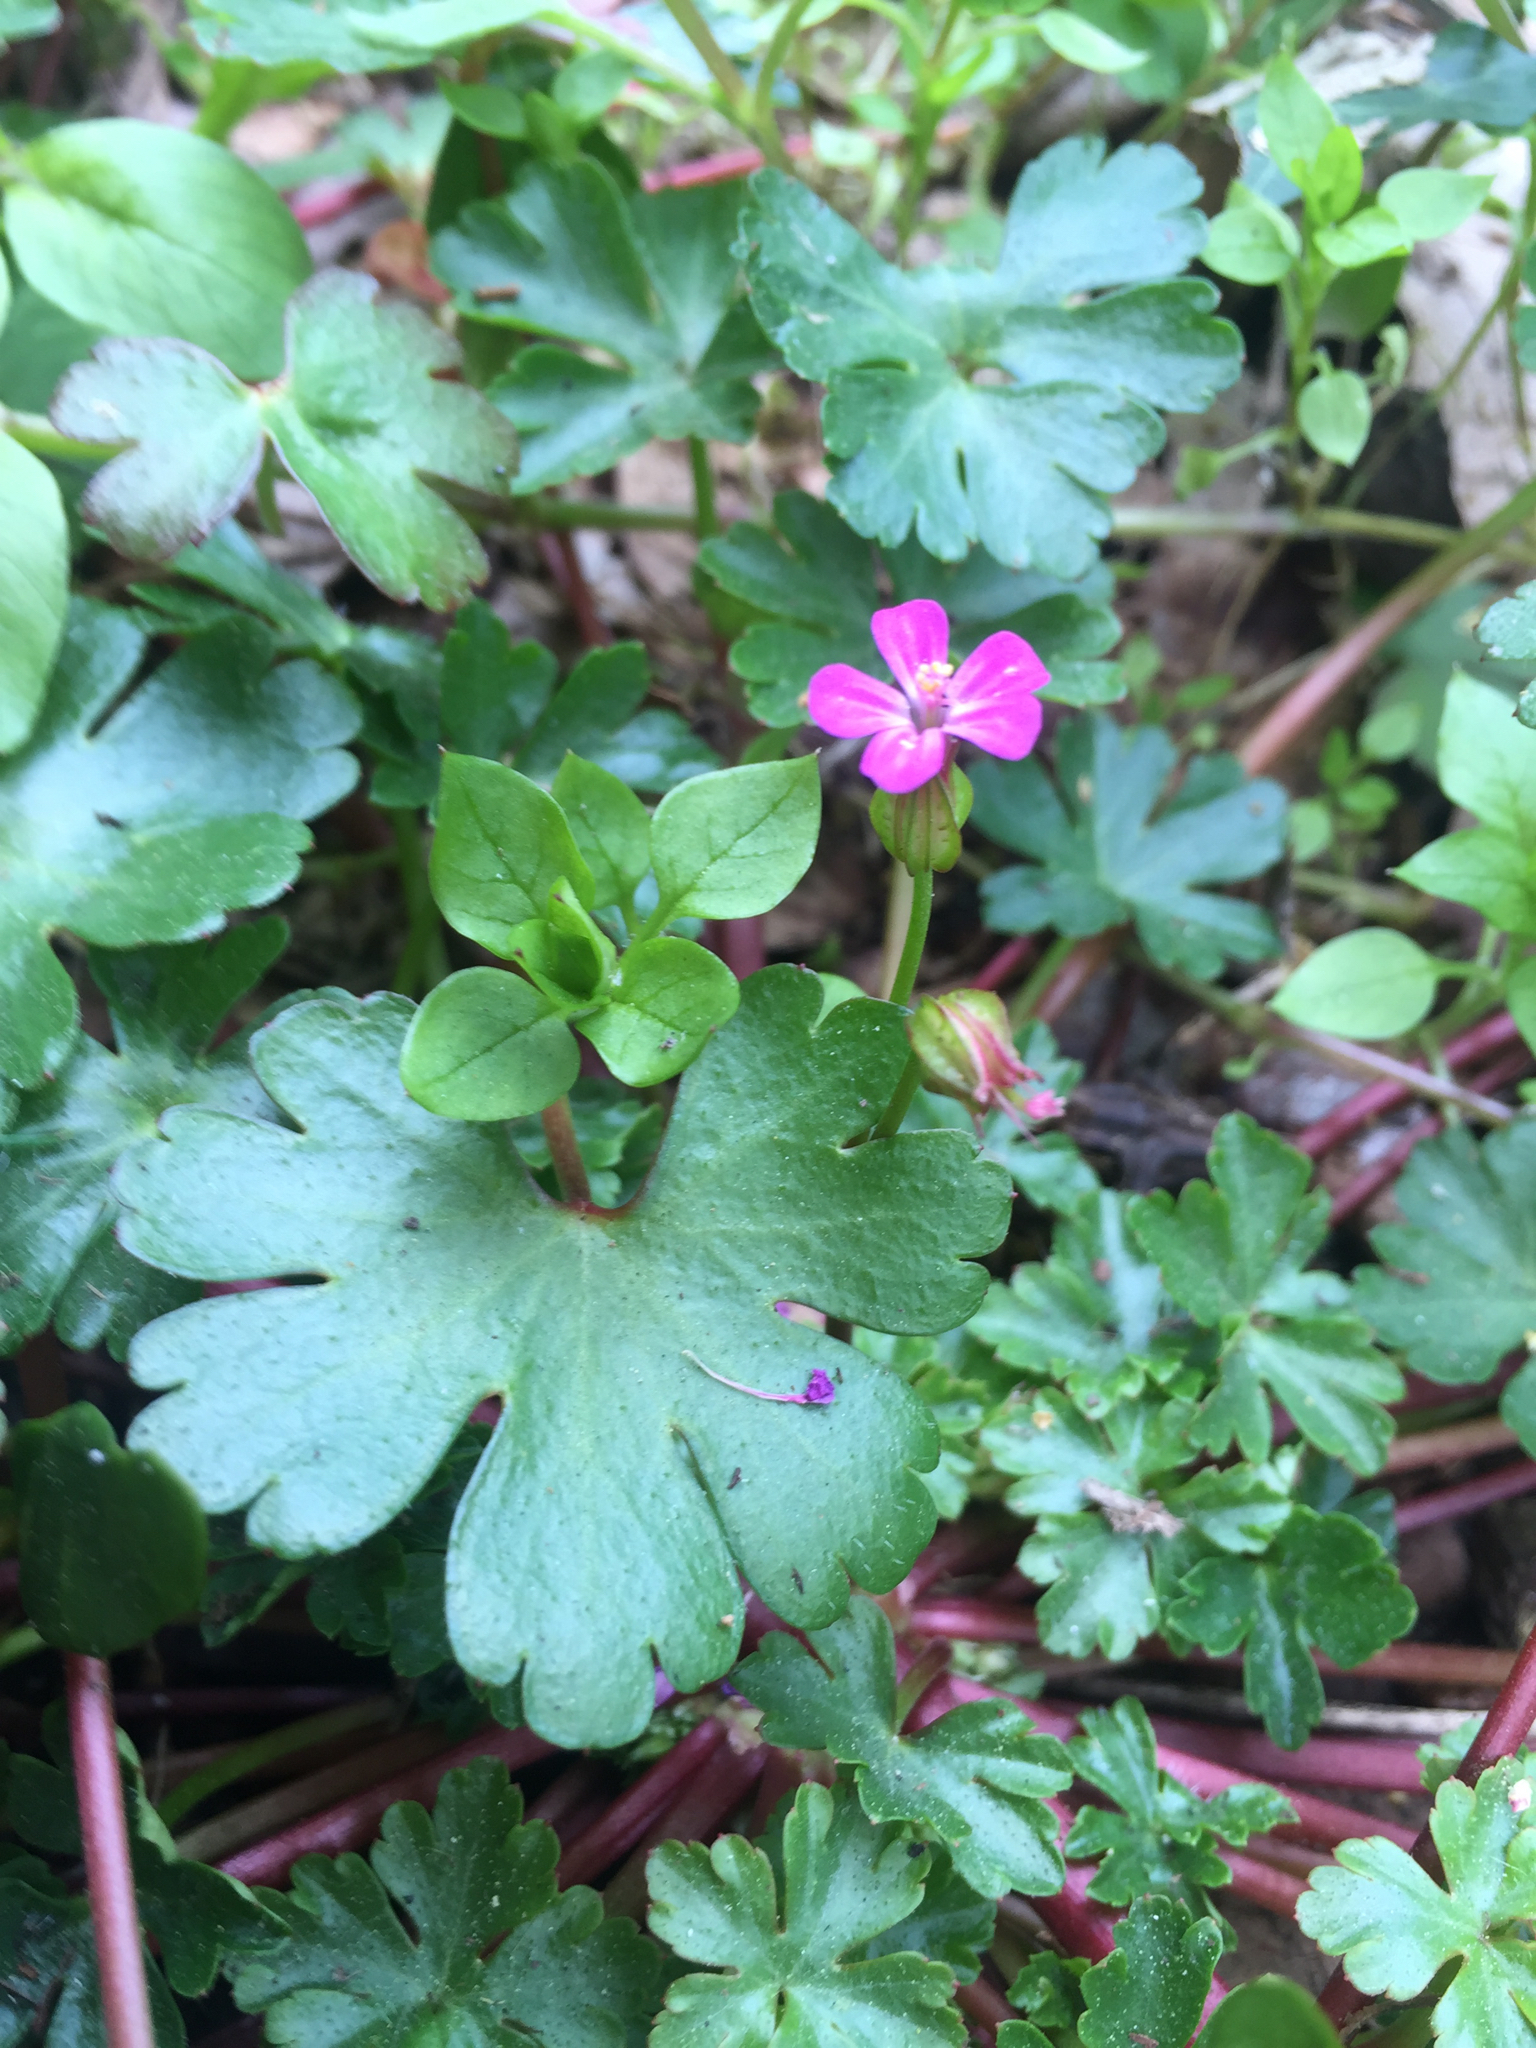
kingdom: Plantae
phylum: Tracheophyta
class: Magnoliopsida
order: Geraniales
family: Geraniaceae
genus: Geranium
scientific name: Geranium lucidum
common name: Shining crane's-bill
